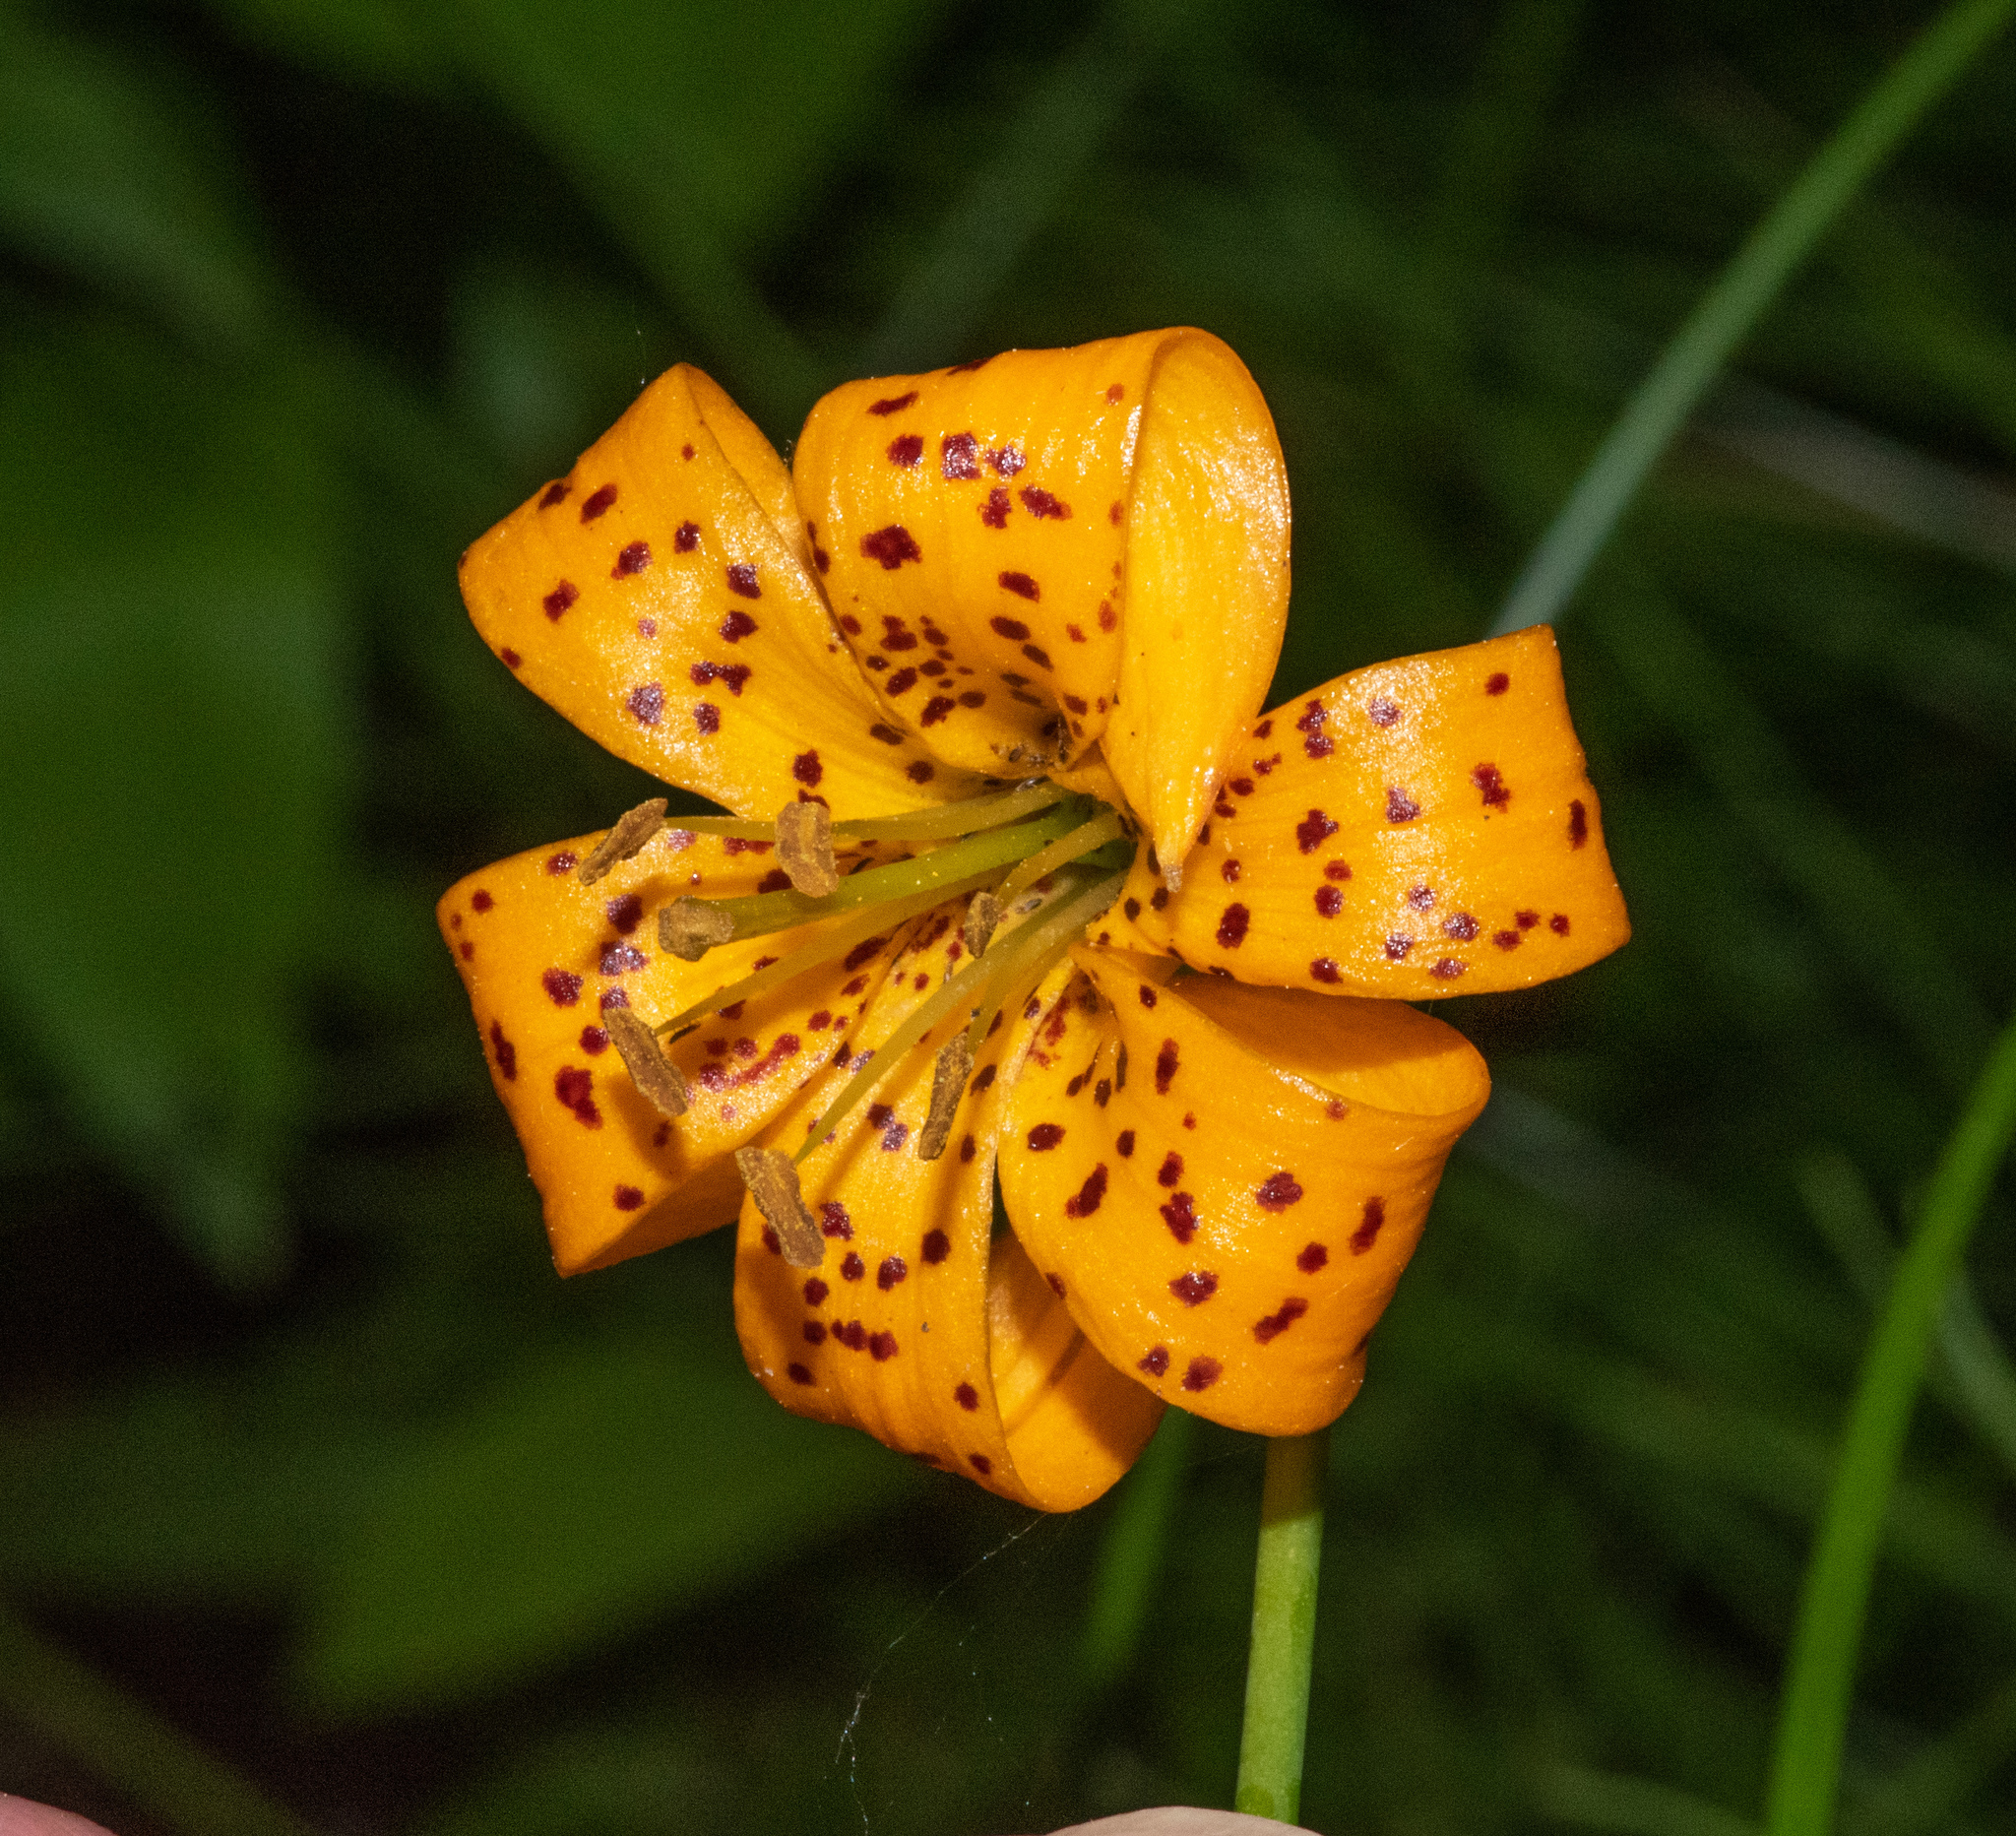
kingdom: Plantae
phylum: Tracheophyta
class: Liliopsida
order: Liliales
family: Liliaceae
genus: Lilium
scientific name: Lilium kelleyanum
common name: Kelley's lily
